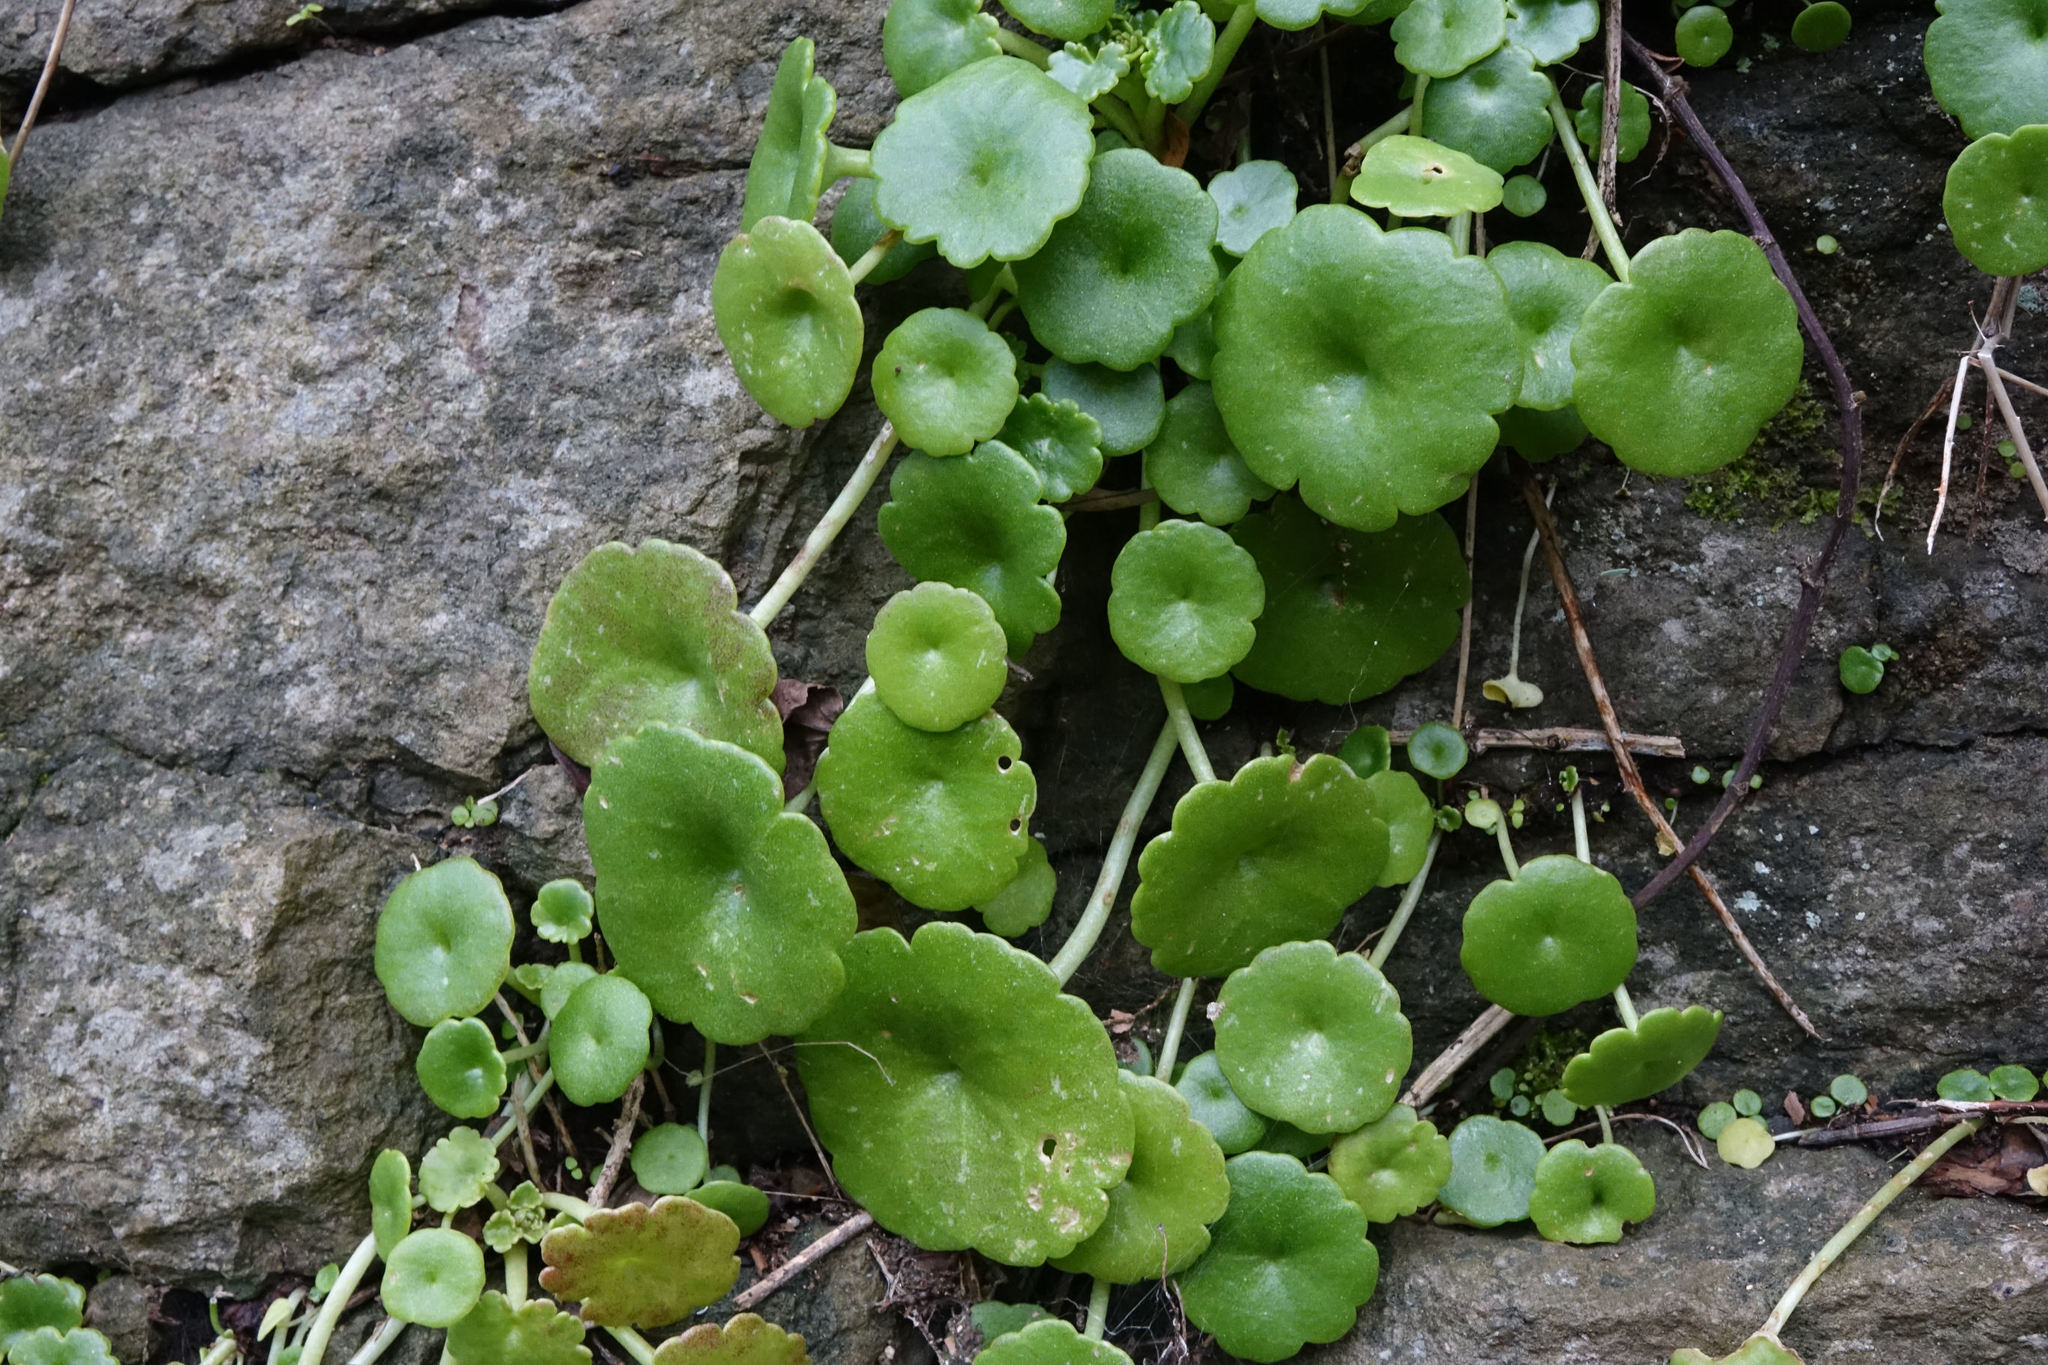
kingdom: Plantae
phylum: Tracheophyta
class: Magnoliopsida
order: Saxifragales
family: Crassulaceae
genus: Umbilicus
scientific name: Umbilicus rupestris
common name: Navelwort
